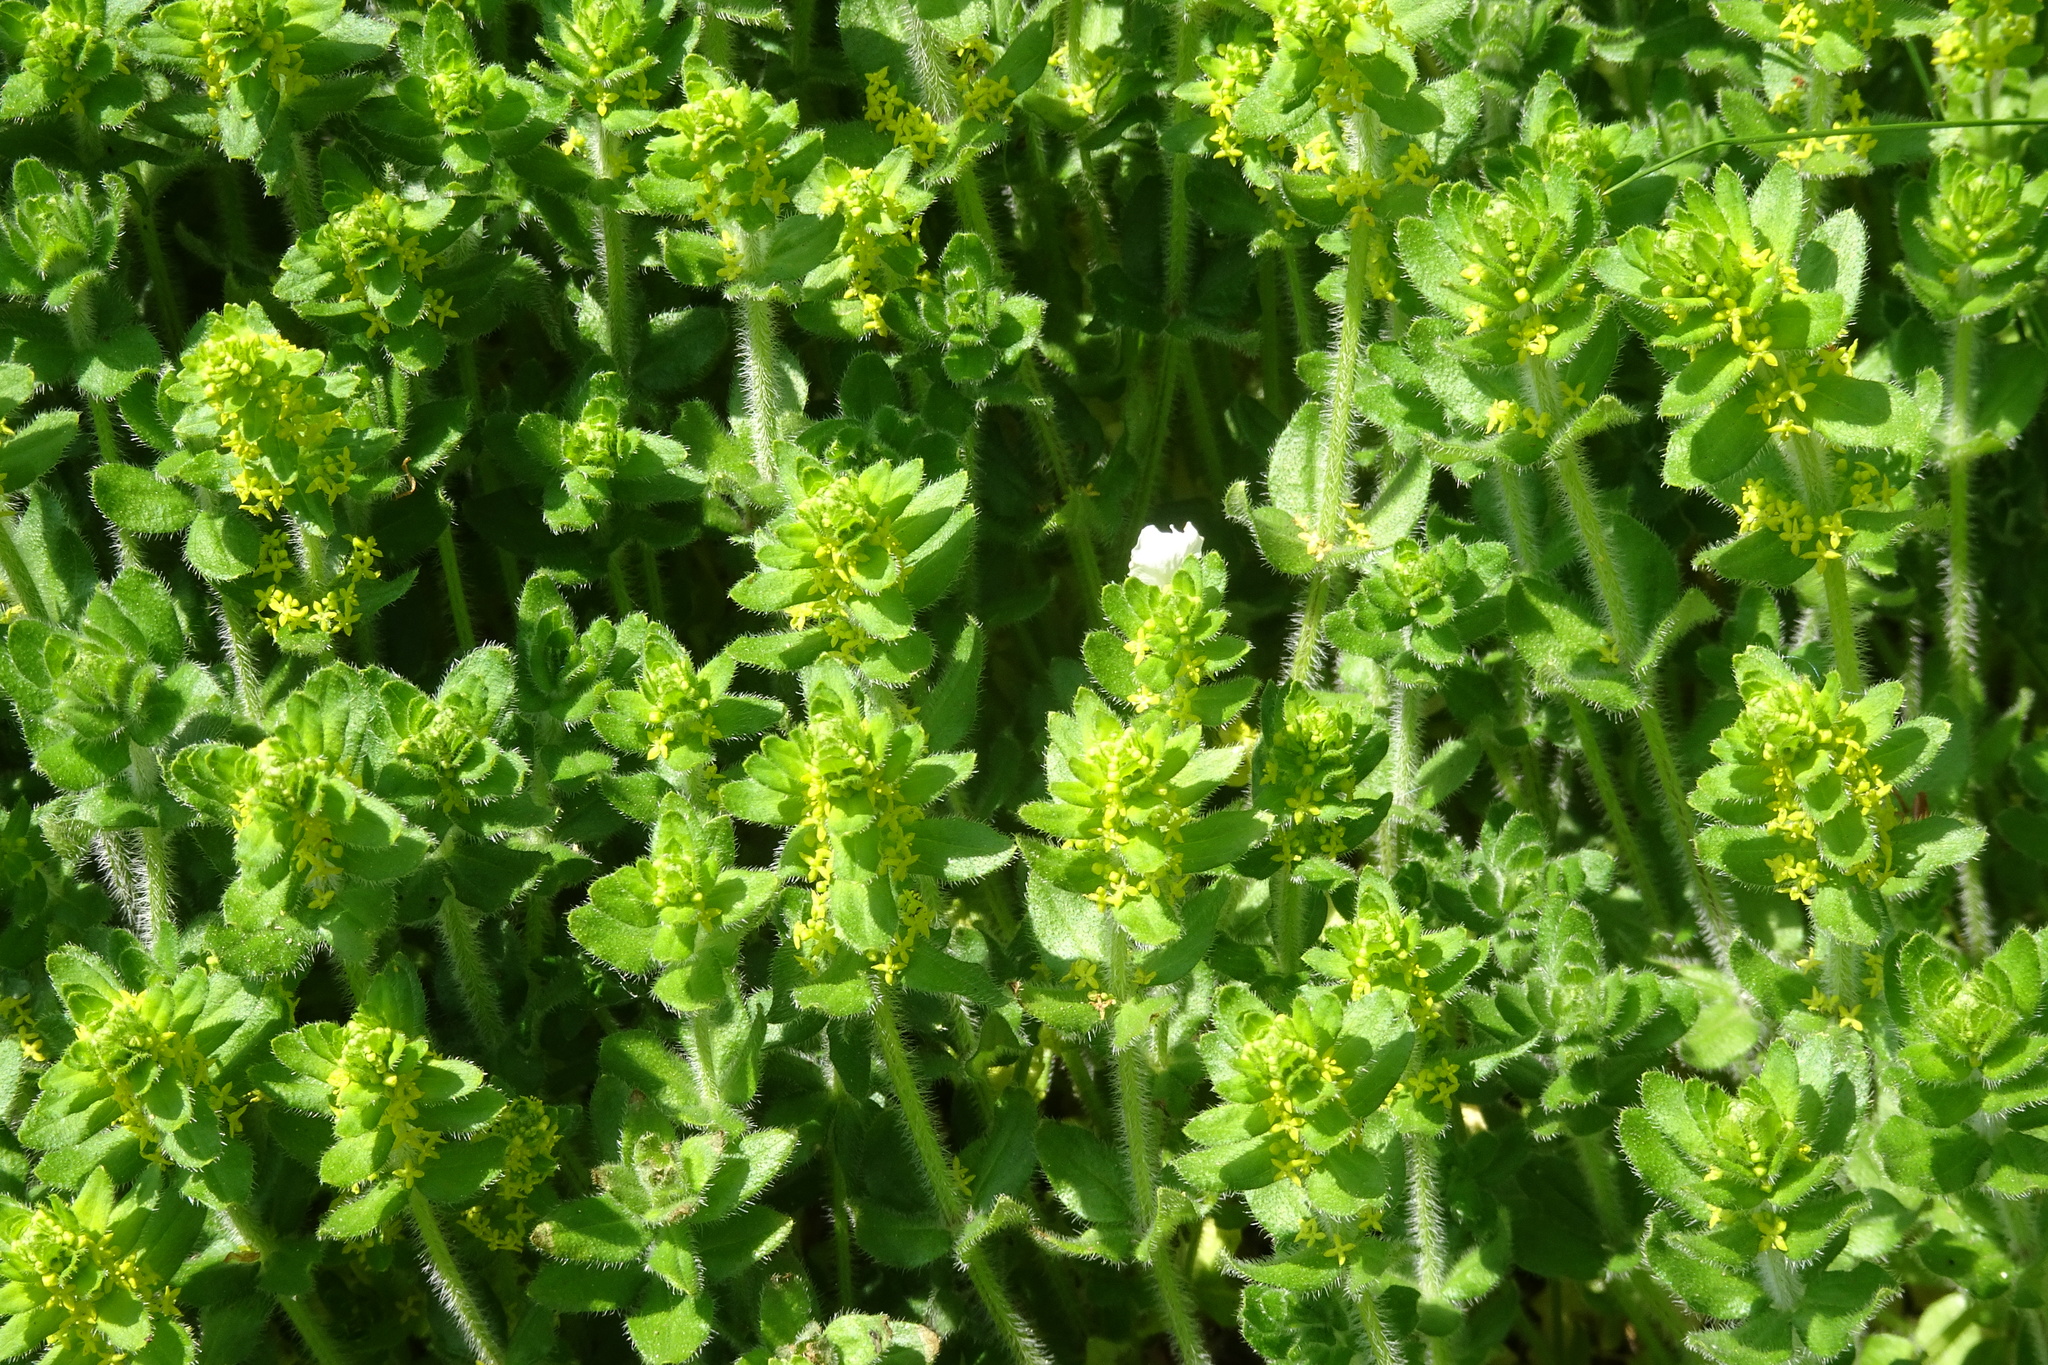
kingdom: Plantae
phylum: Tracheophyta
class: Magnoliopsida
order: Gentianales
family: Rubiaceae
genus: Cruciata
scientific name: Cruciata laevipes
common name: Crosswort
